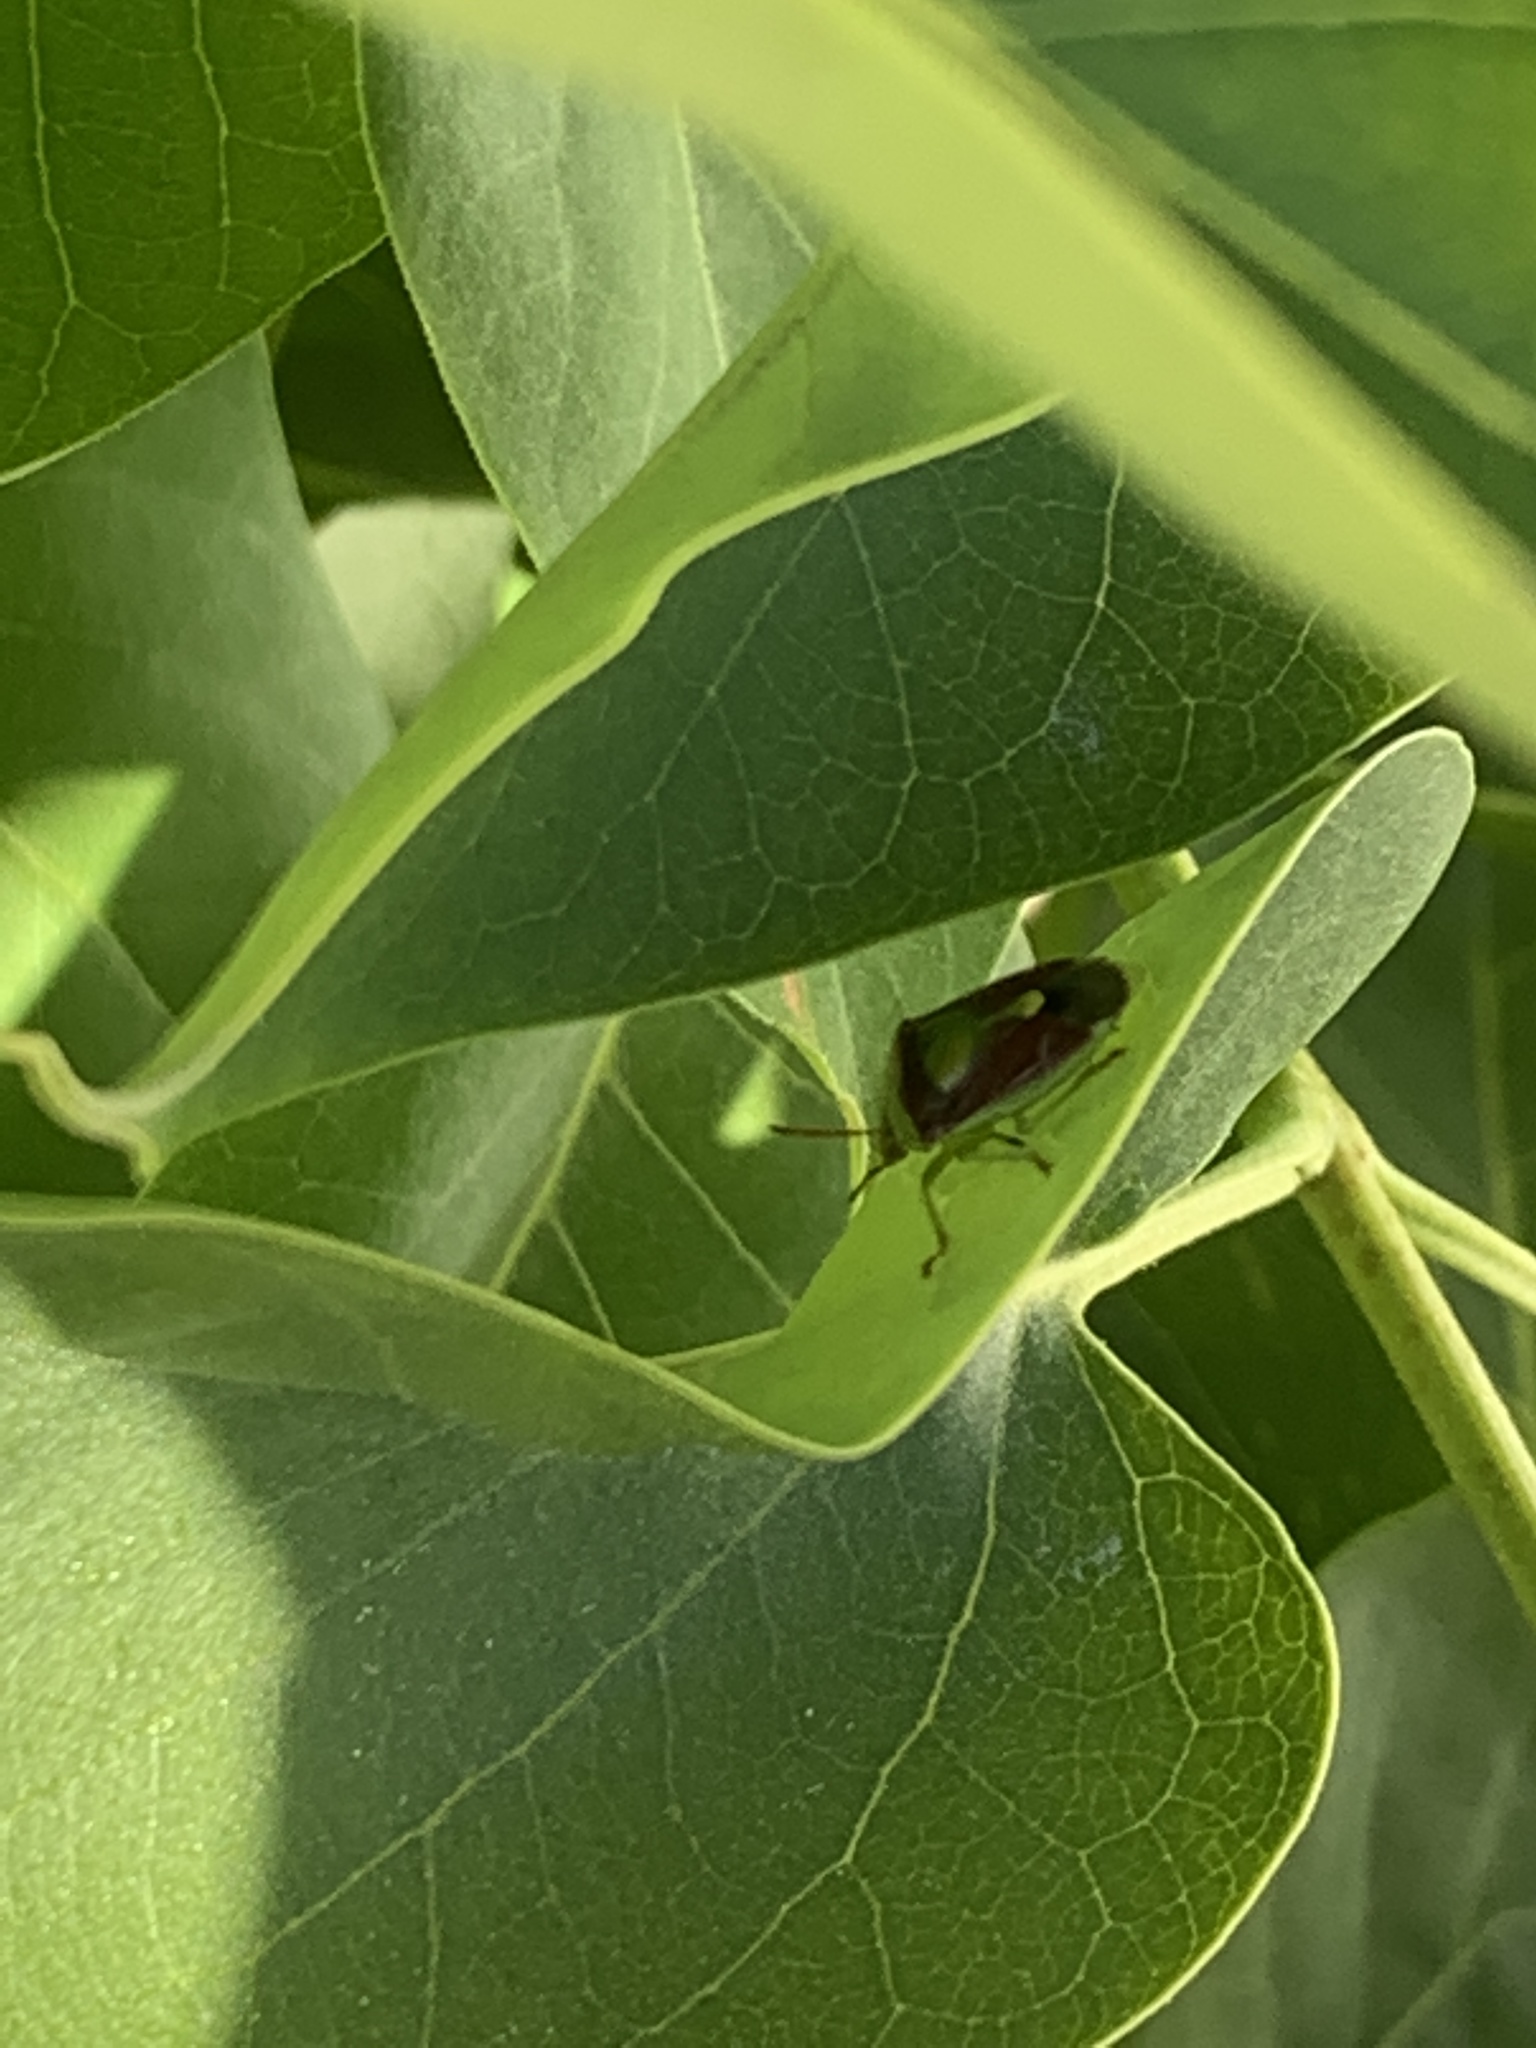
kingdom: Animalia
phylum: Arthropoda
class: Insecta
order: Hemiptera
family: Pentatomidae
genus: Banasa
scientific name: Banasa dimidiata
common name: Green burgundy stink bug
